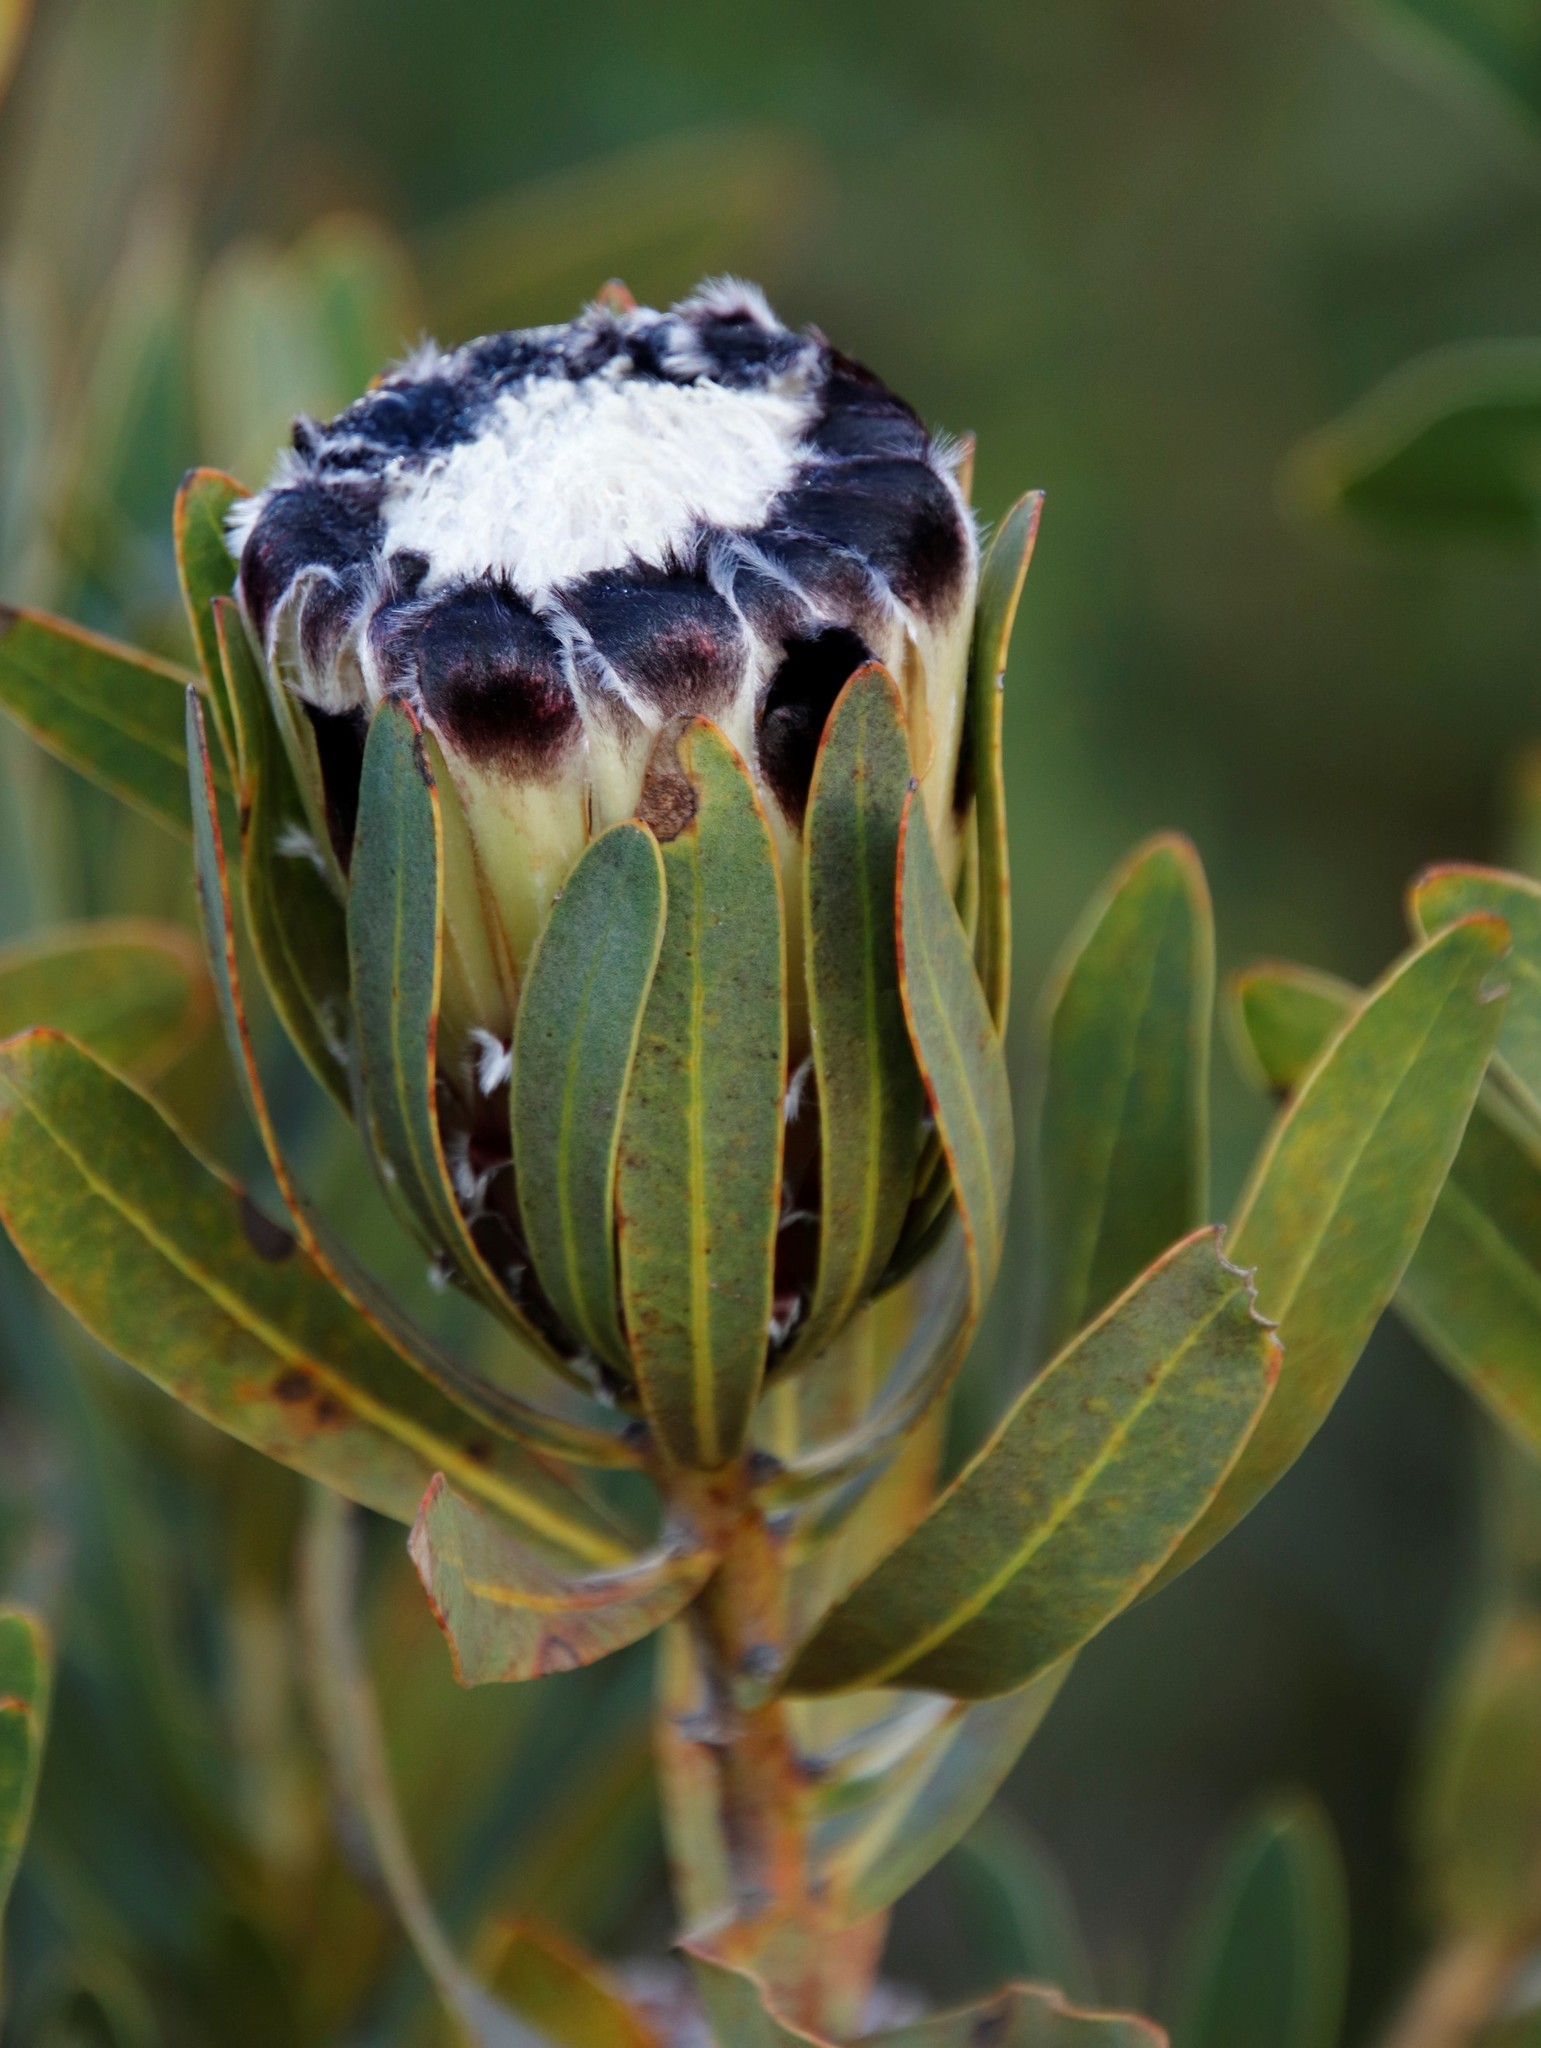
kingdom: Plantae
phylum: Tracheophyta
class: Magnoliopsida
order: Proteales
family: Proteaceae
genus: Protea
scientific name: Protea lepidocarpodendron
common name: Black-bearded protea
